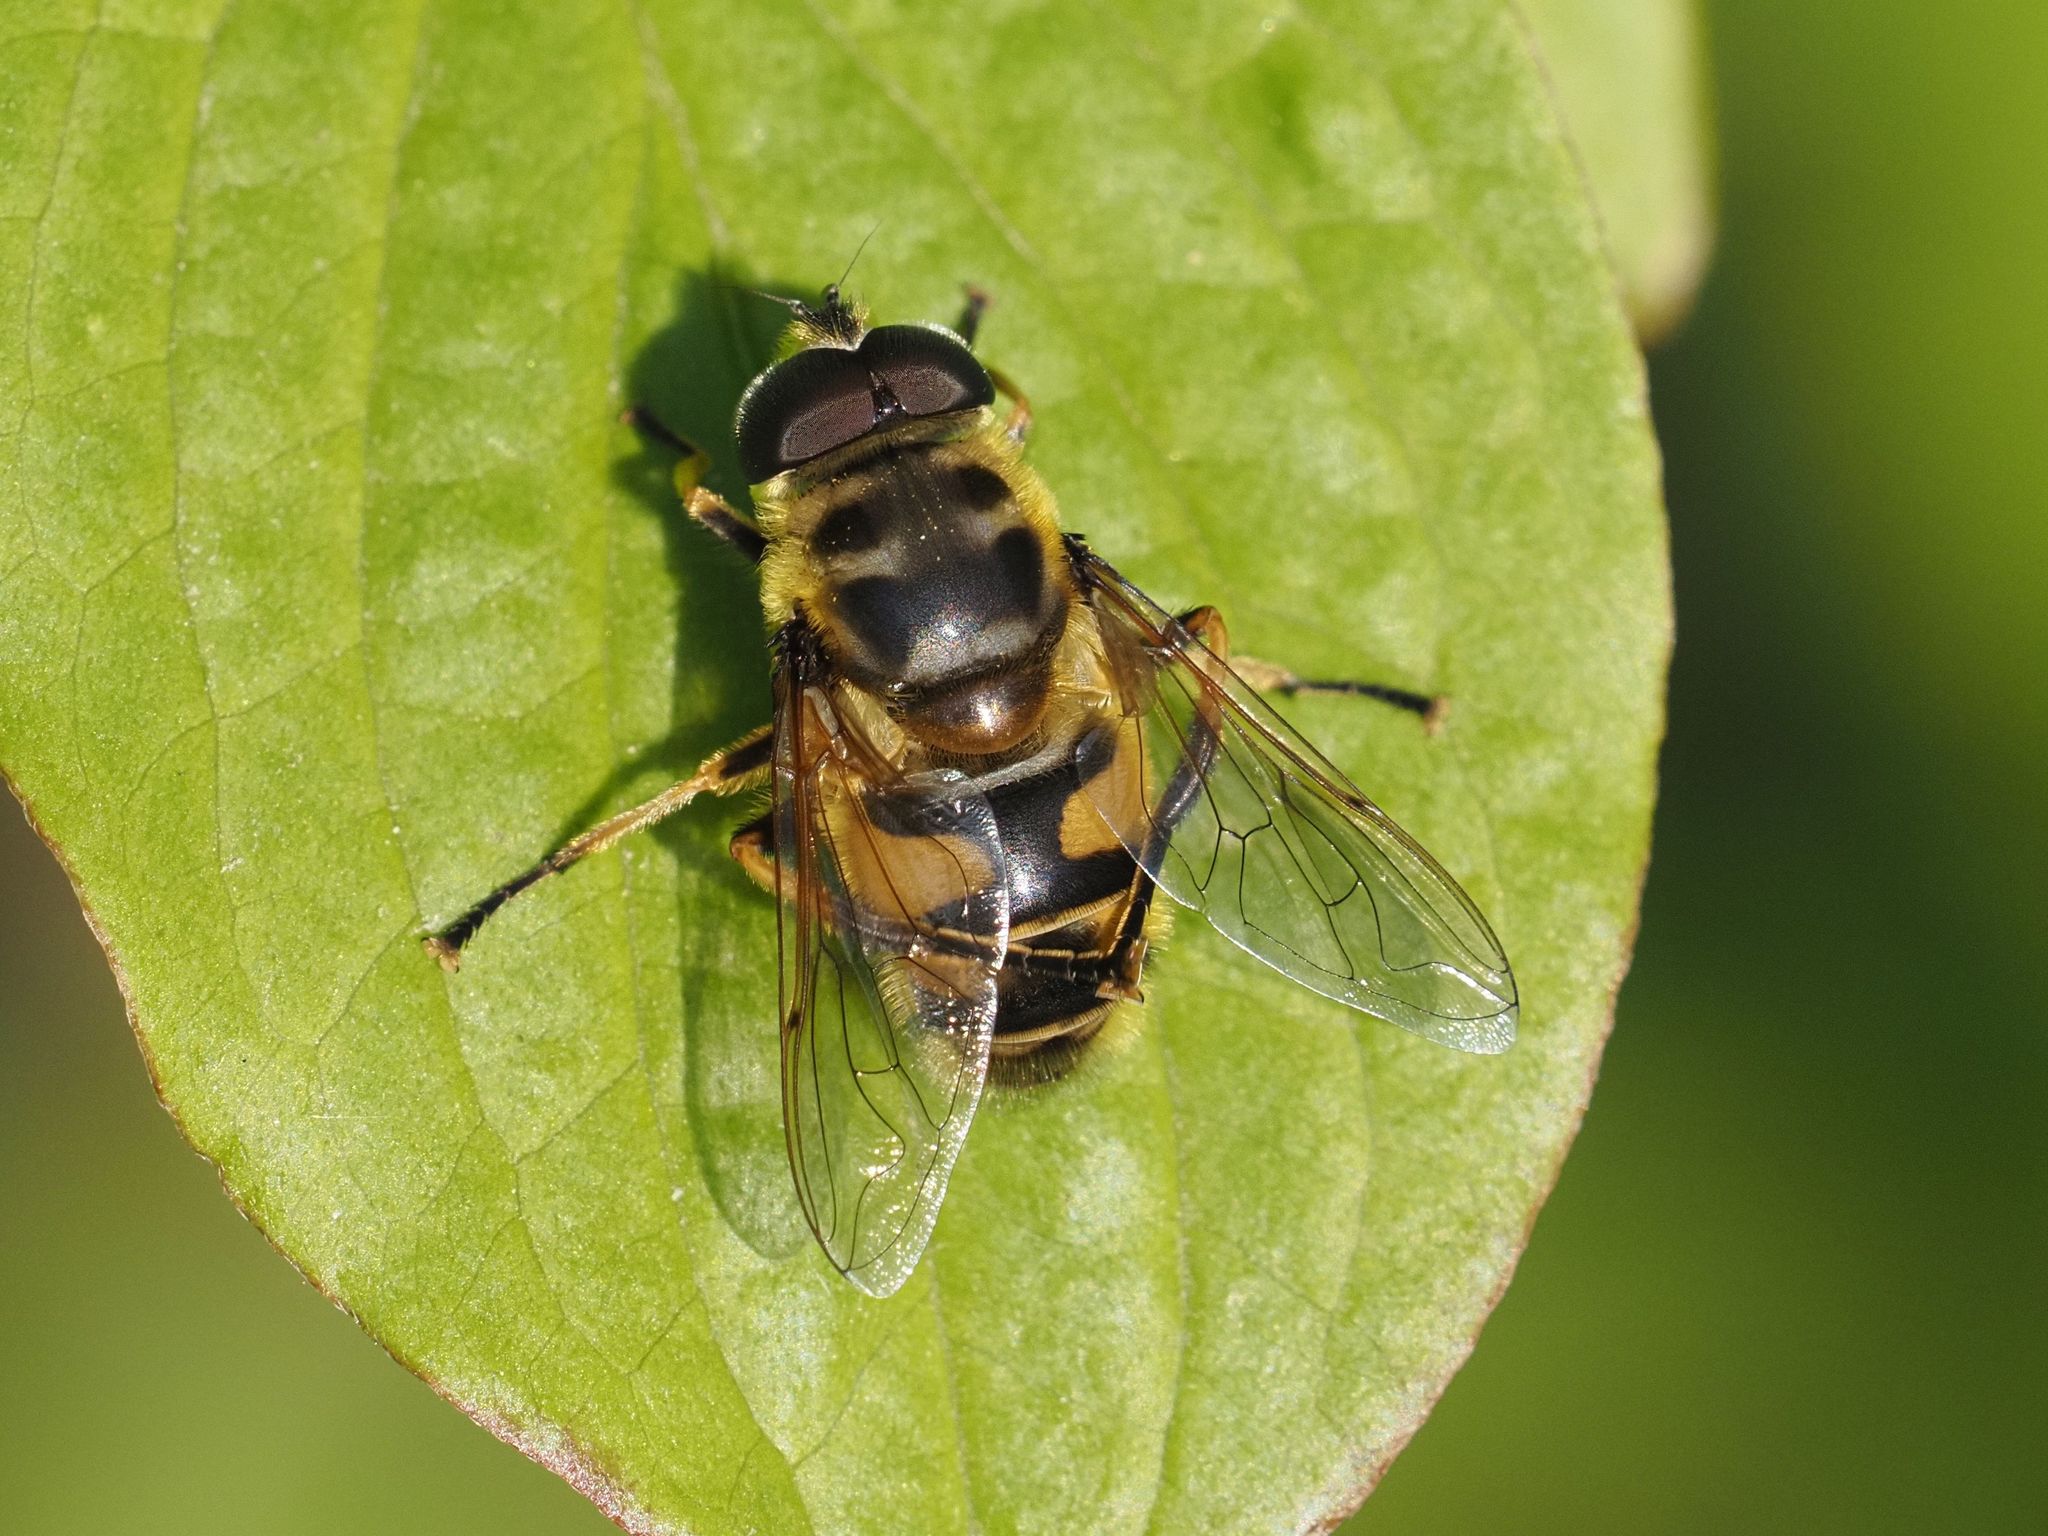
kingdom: Animalia
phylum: Arthropoda
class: Insecta
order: Diptera
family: Syrphidae
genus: Myathropa
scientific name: Myathropa florea
